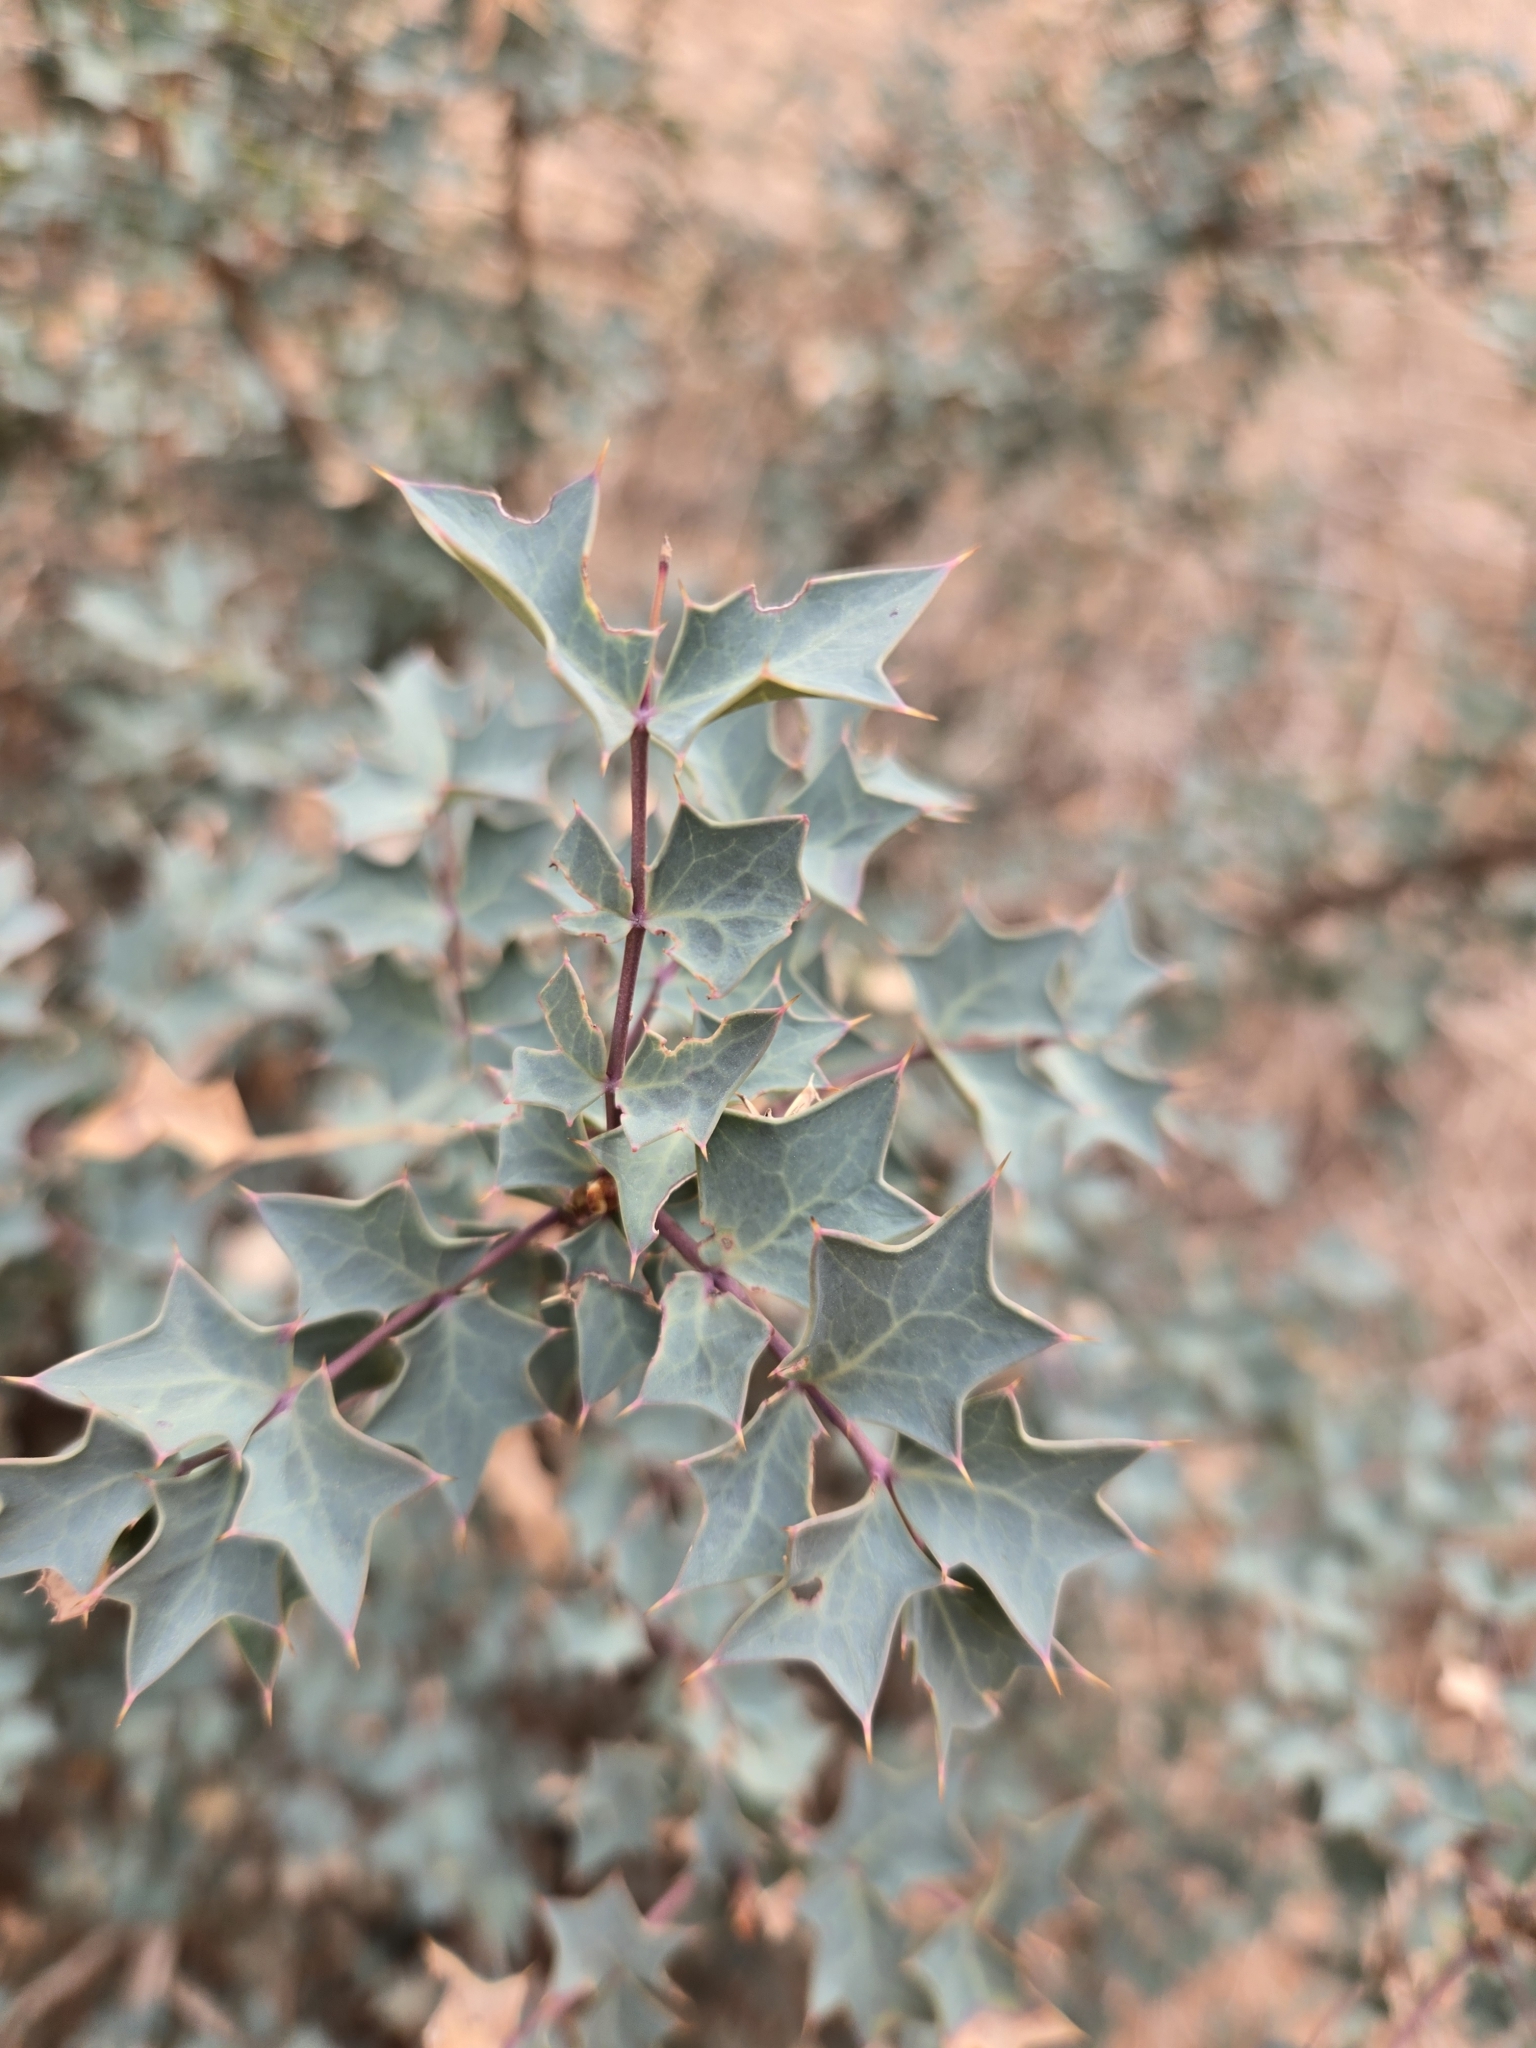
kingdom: Plantae
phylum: Tracheophyta
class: Magnoliopsida
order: Ranunculales
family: Berberidaceae
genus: Alloberberis
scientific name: Alloberberis fremontii
